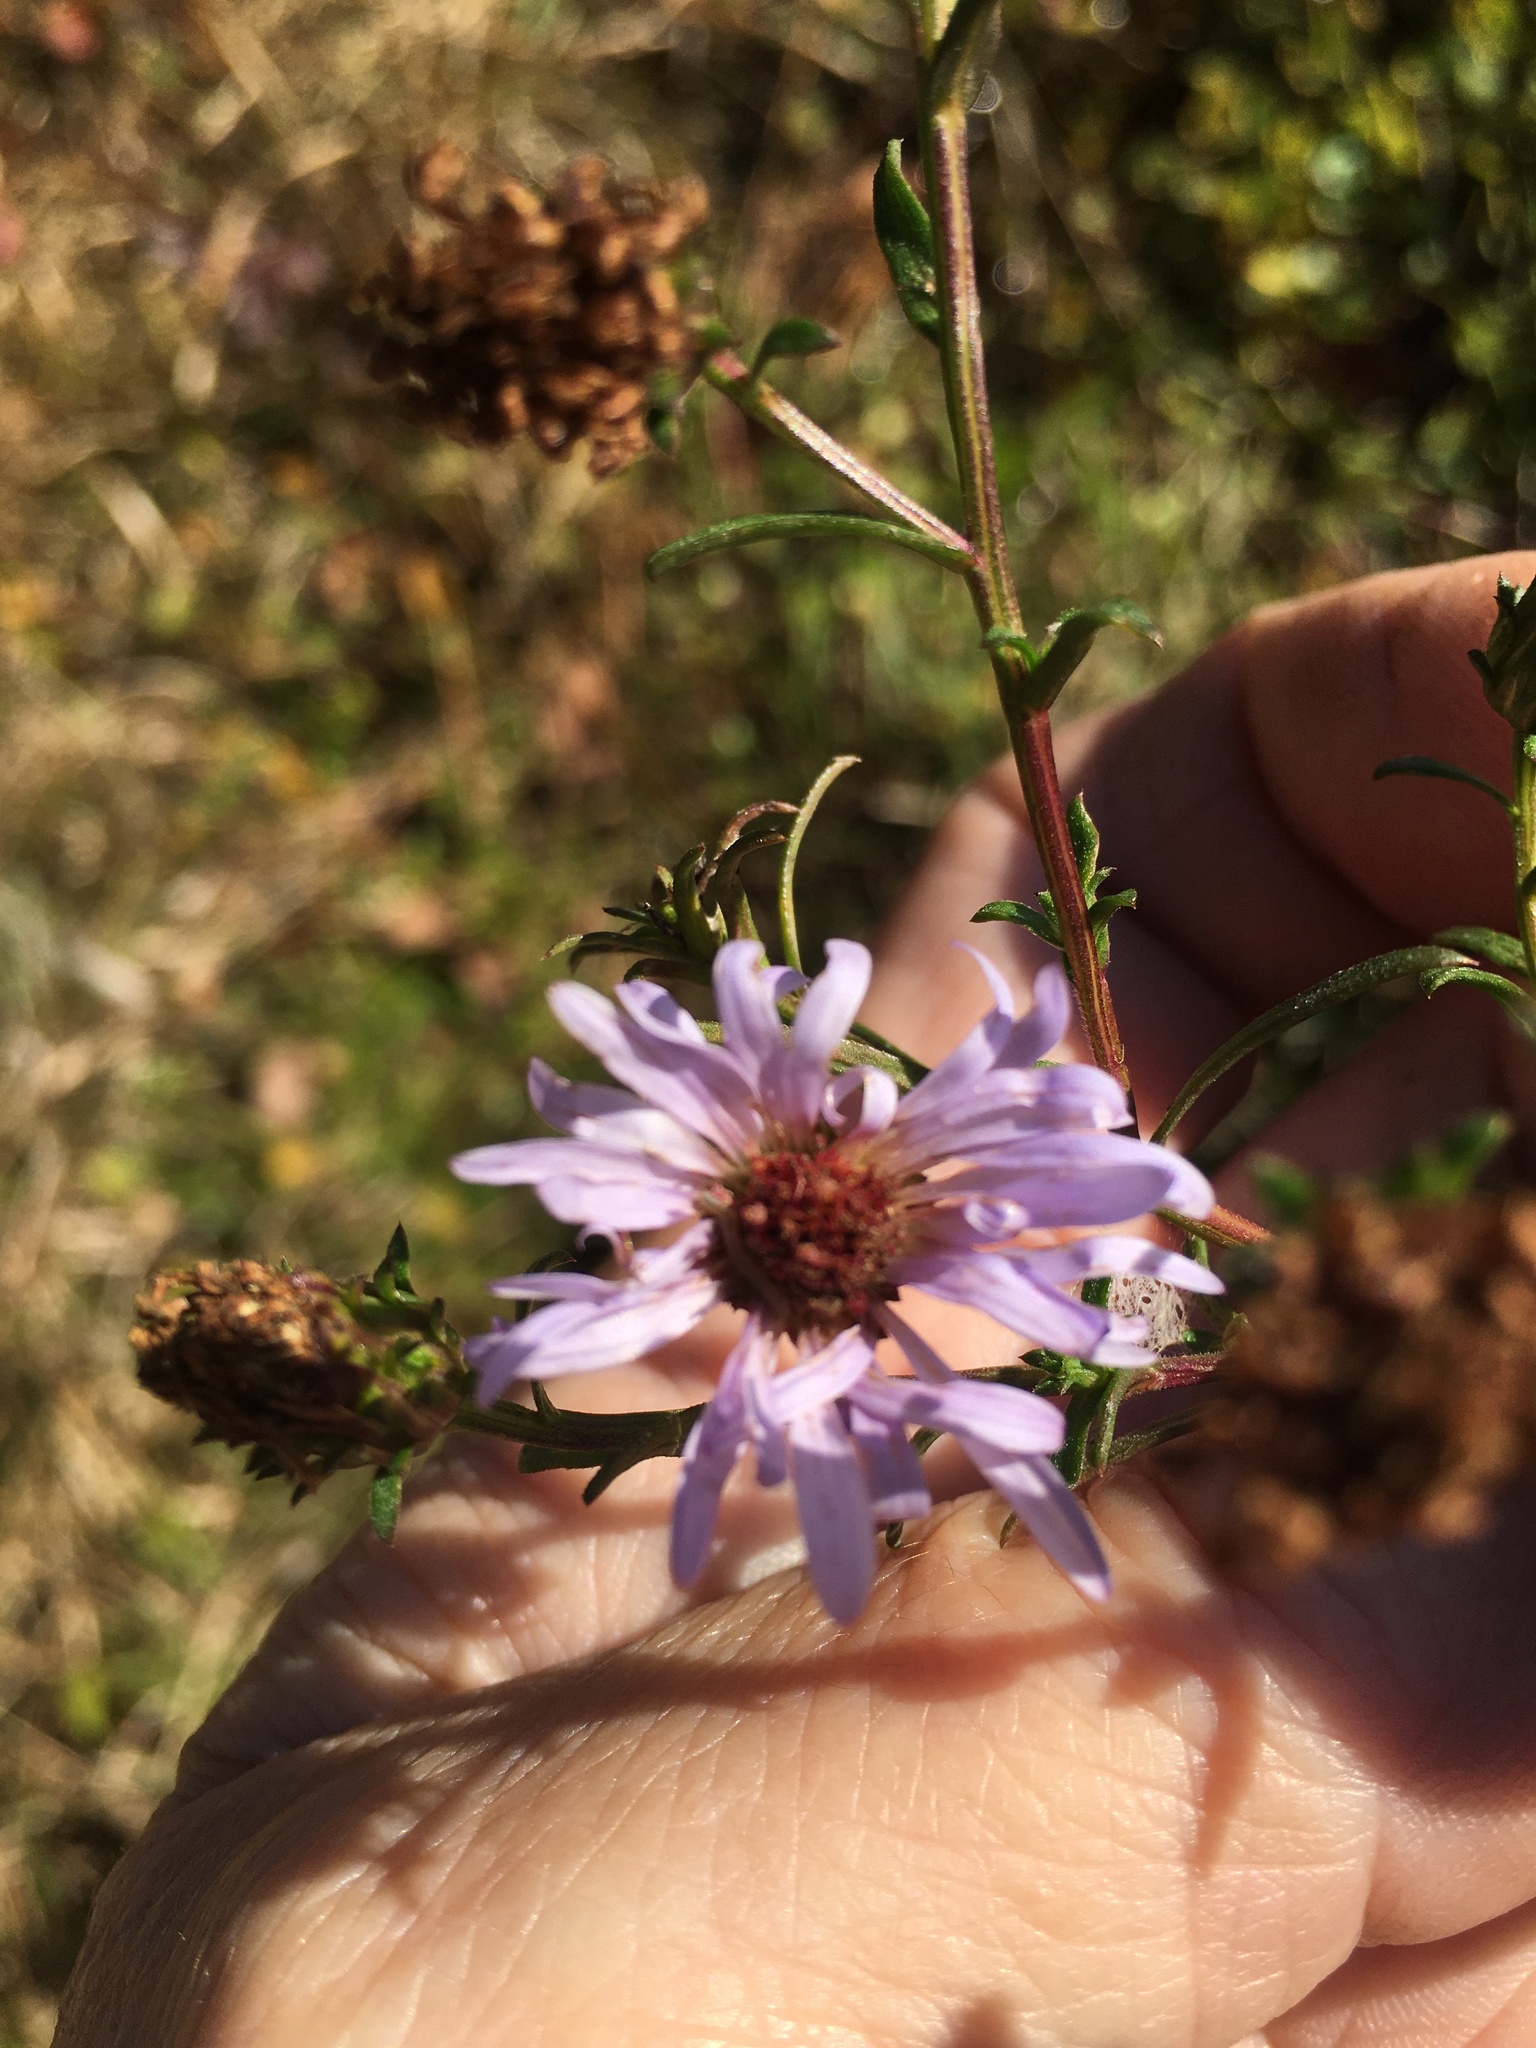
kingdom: Plantae
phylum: Tracheophyta
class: Magnoliopsida
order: Asterales
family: Asteraceae
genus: Symphyotrichum
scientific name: Symphyotrichum novi-belgii
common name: Michaelmas daisy
